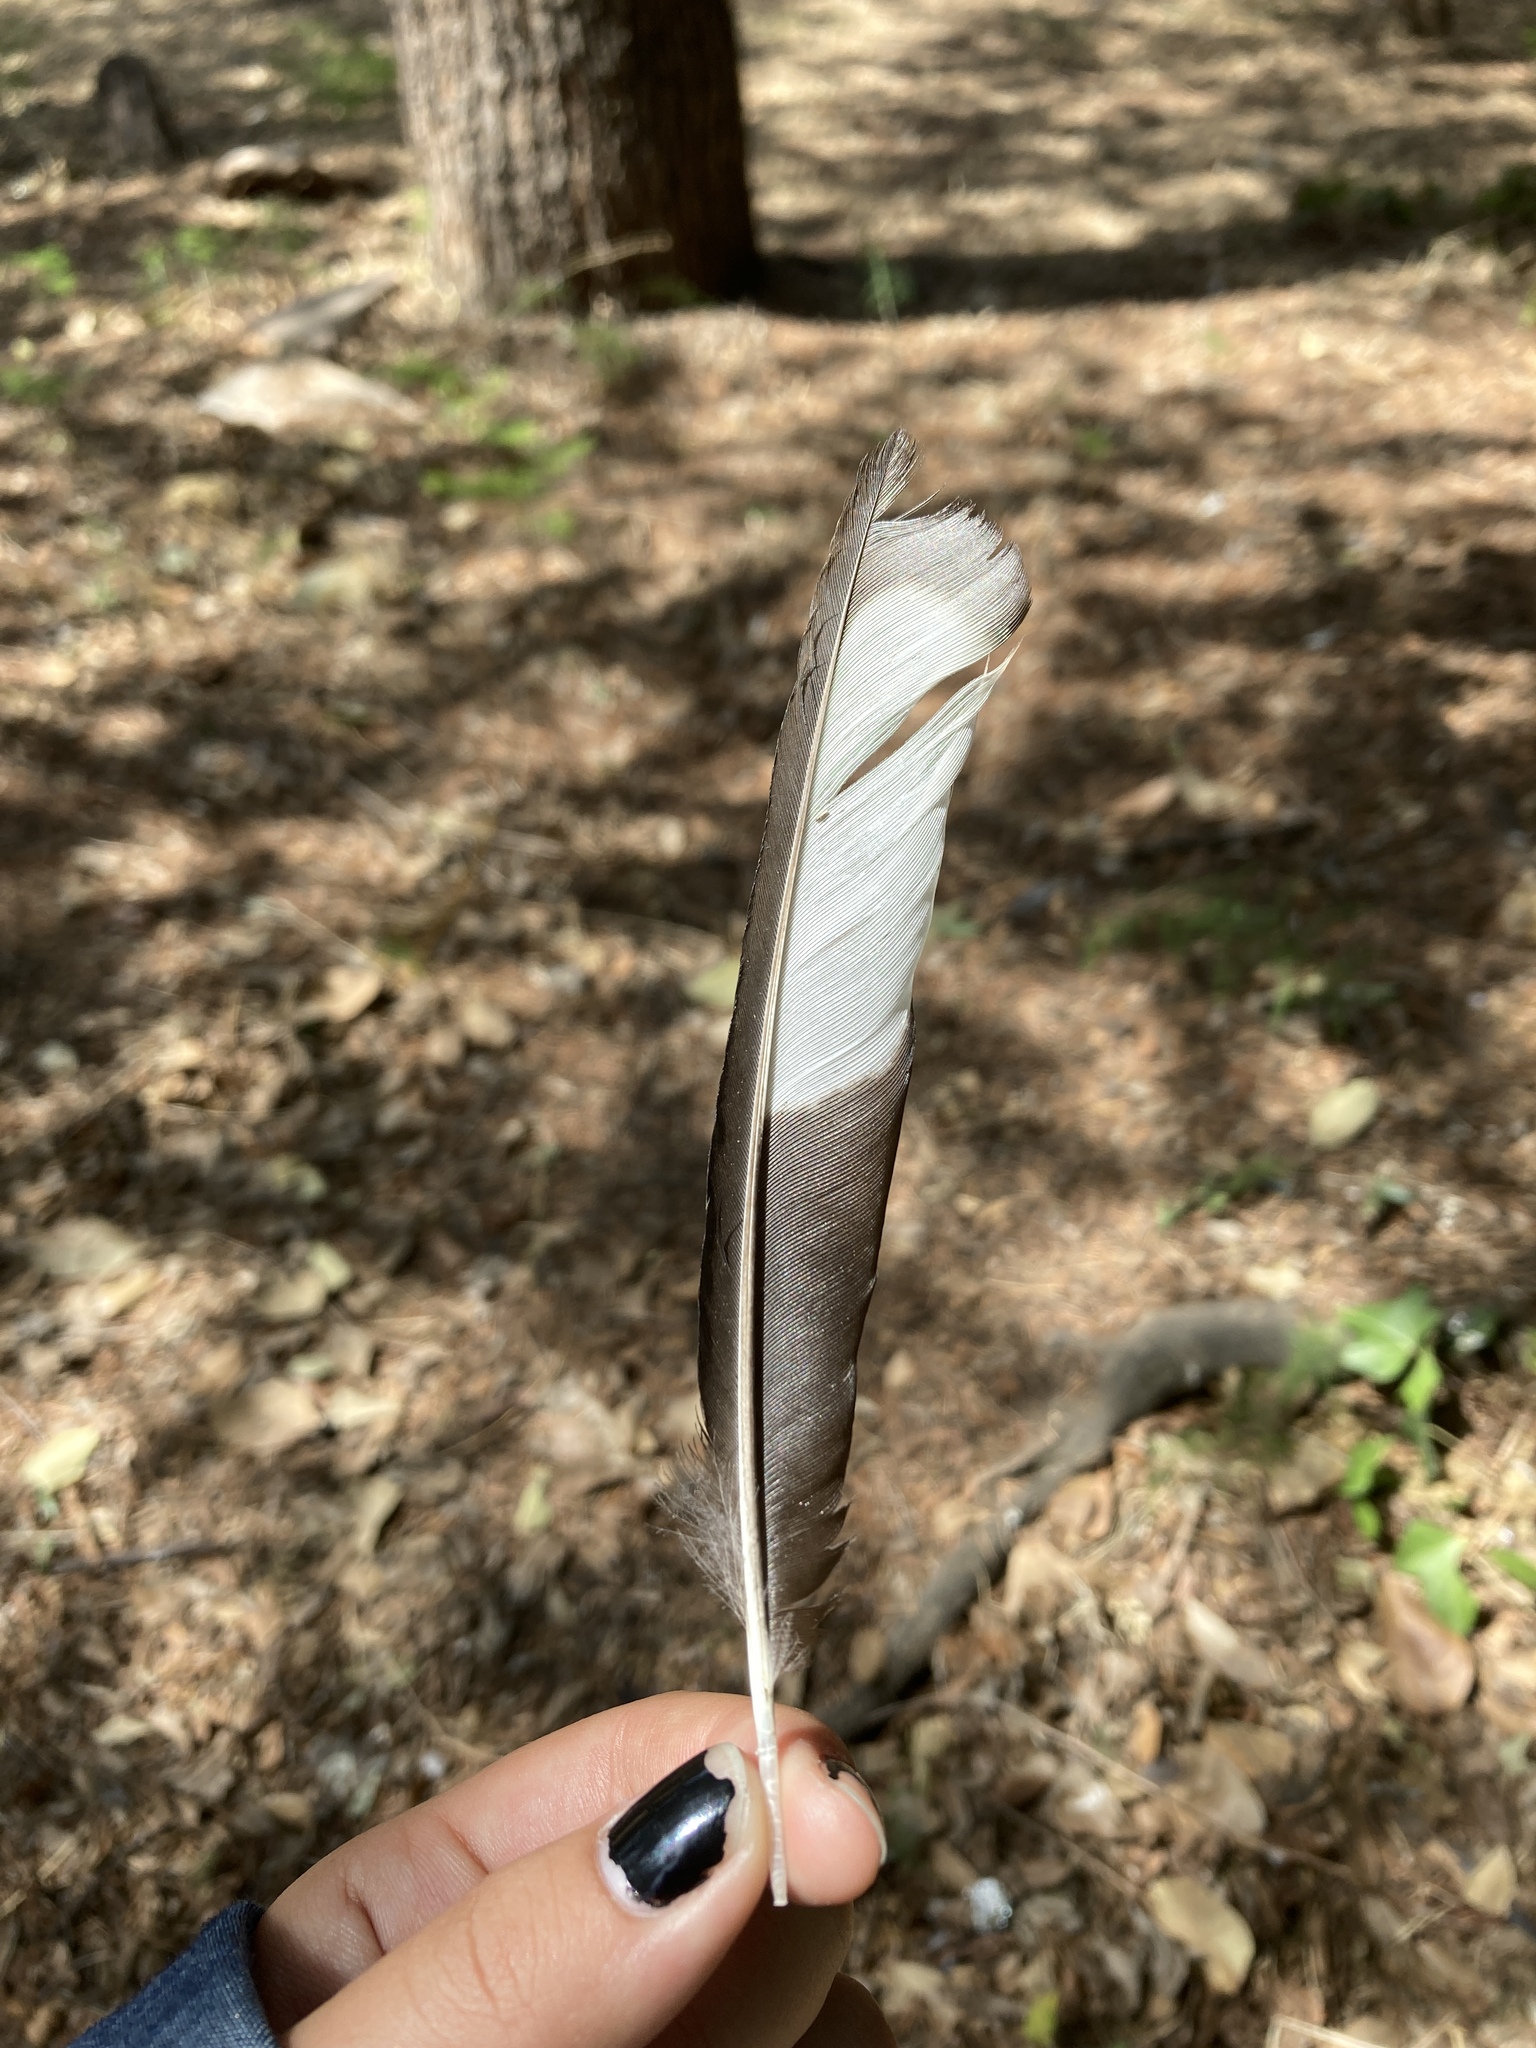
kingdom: Animalia
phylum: Chordata
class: Aves
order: Passeriformes
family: Corvidae
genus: Pica
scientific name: Pica pica
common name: Eurasian magpie
